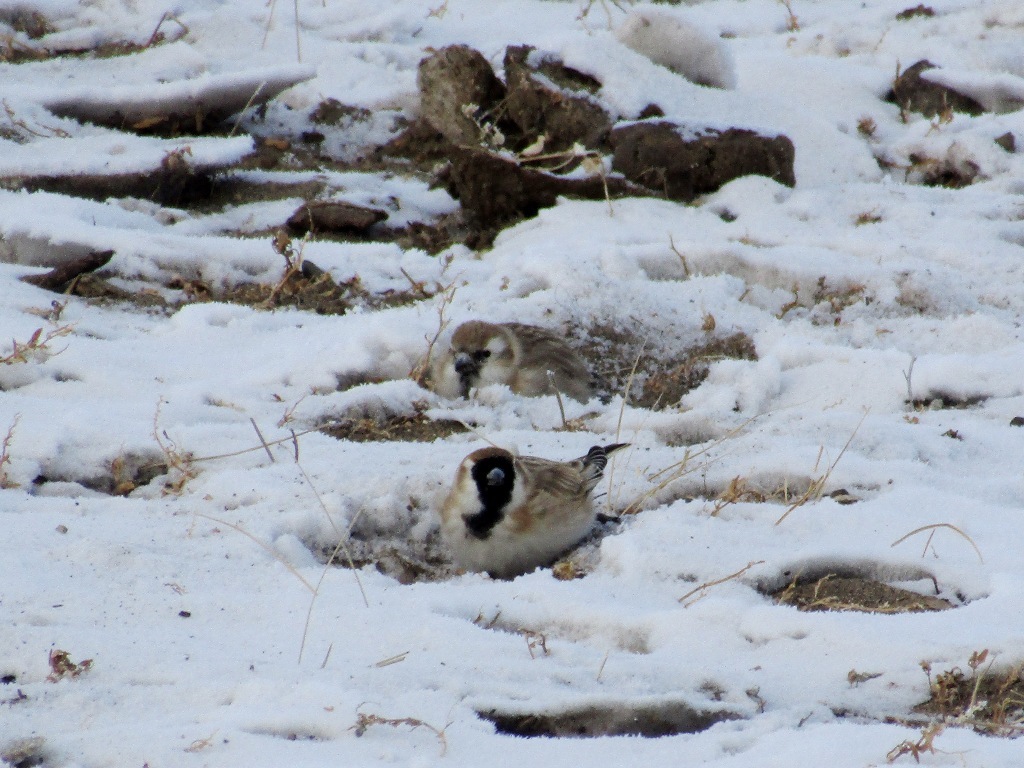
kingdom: Animalia
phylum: Chordata
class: Aves
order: Passeriformes
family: Passeridae
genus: Pyrgilauda
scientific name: Pyrgilauda davidiana
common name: Pere david's snowfinch
